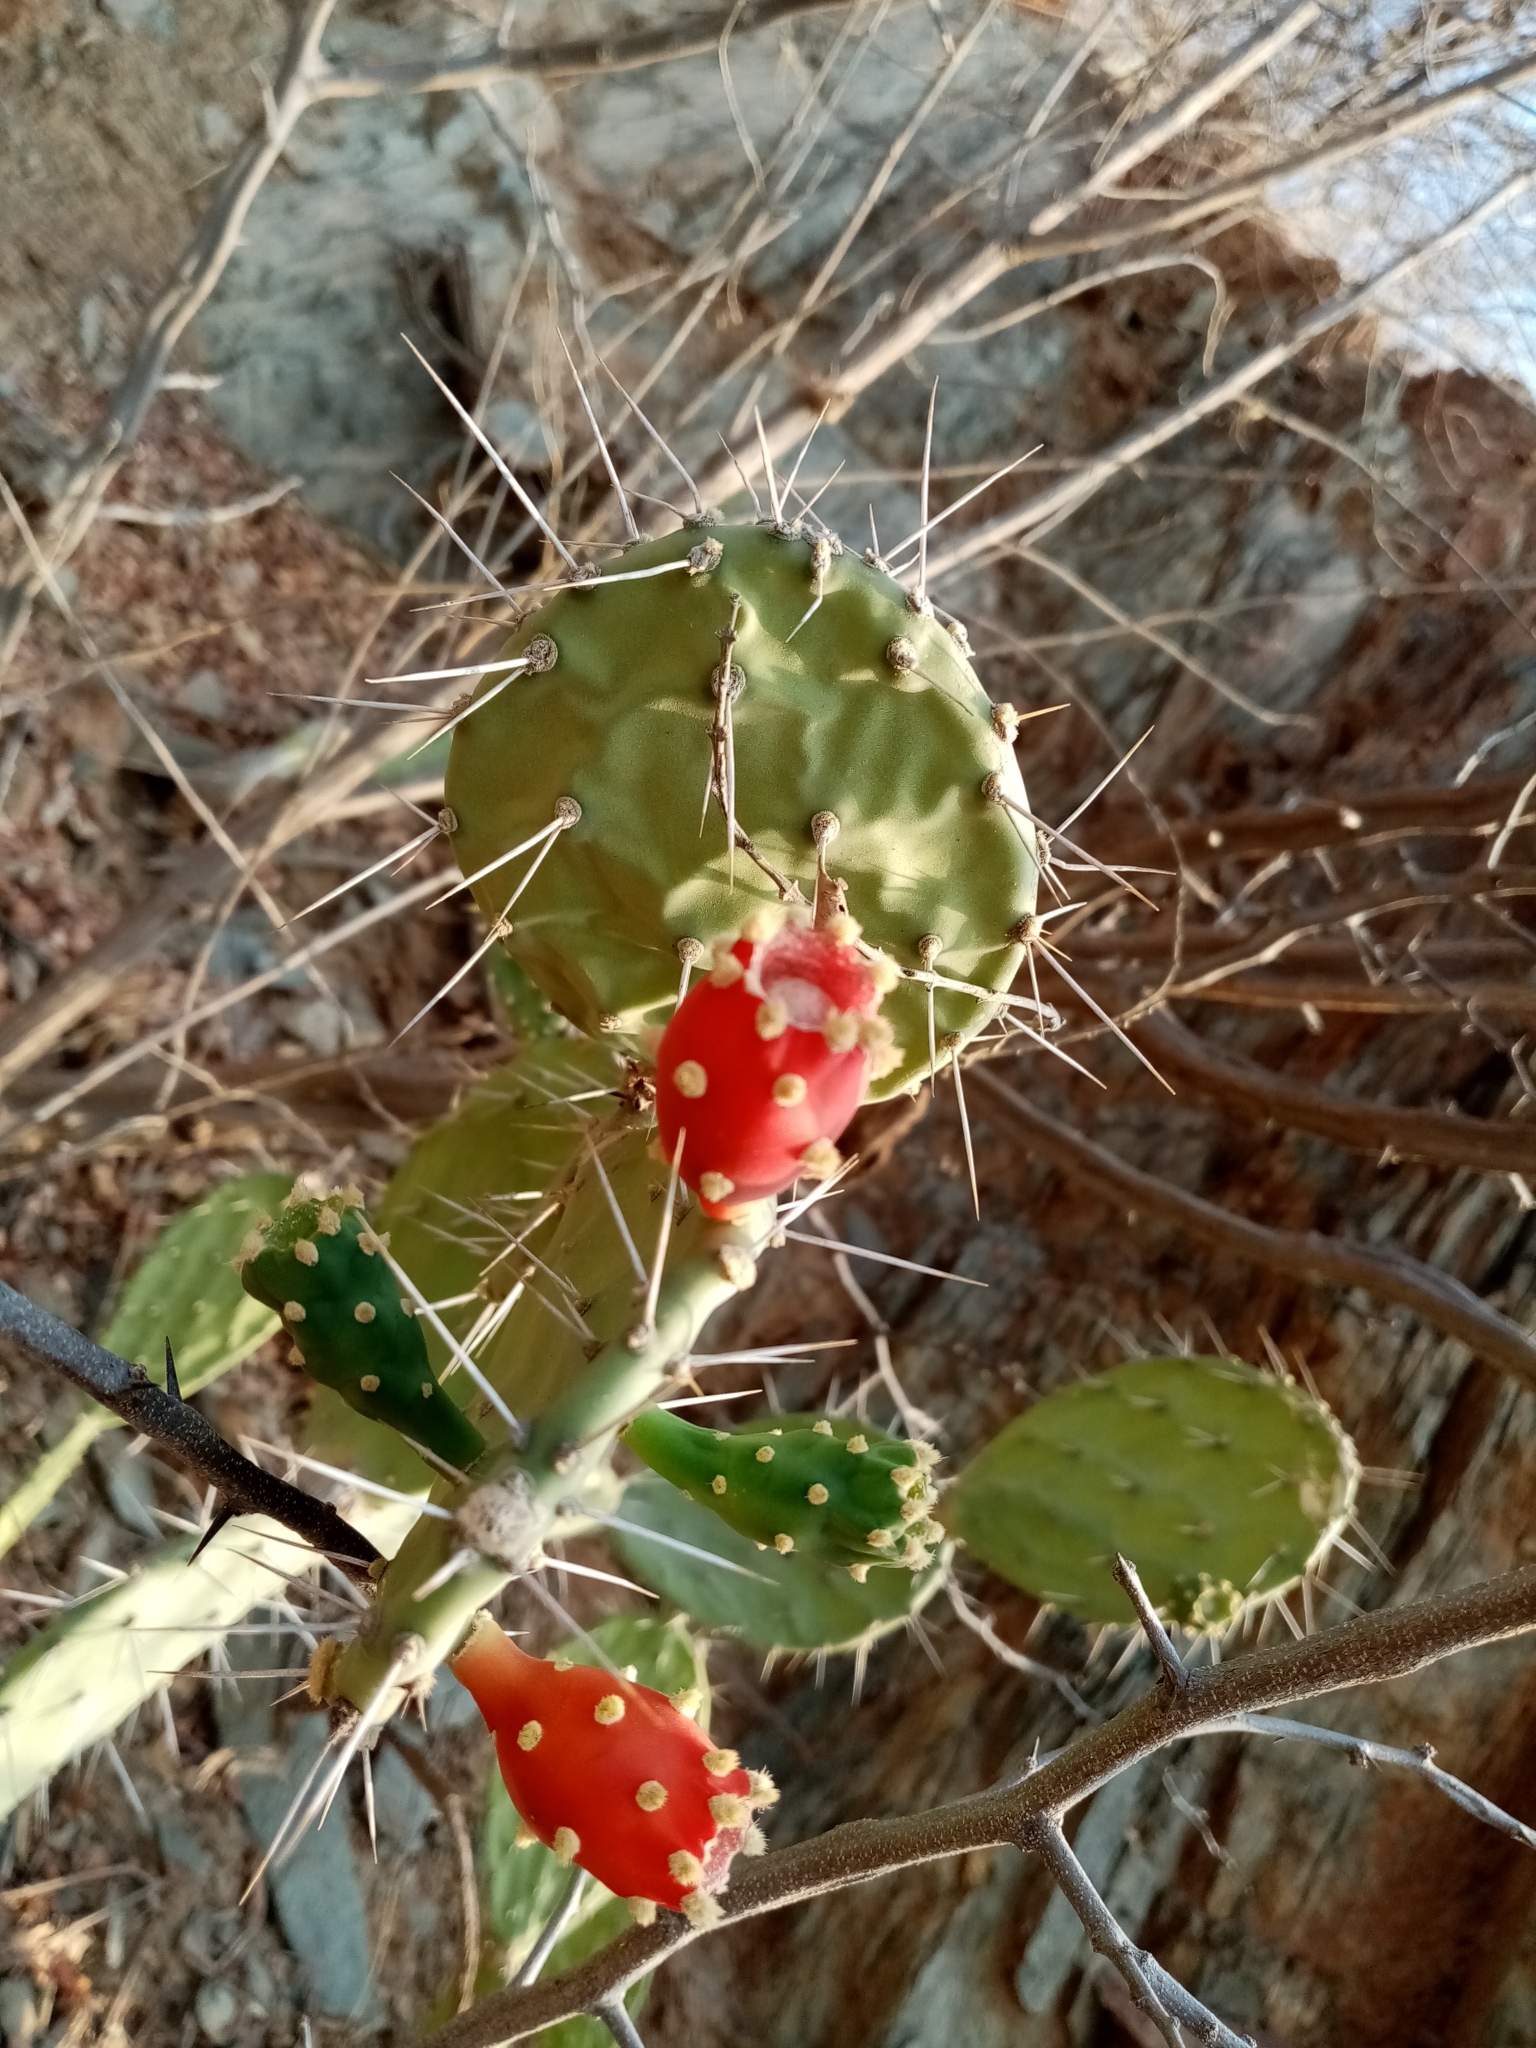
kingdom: Plantae
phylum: Tracheophyta
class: Magnoliopsida
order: Caryophyllales
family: Cactaceae
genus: Opuntia
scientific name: Opuntia caracassana
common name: Common prickly pear
